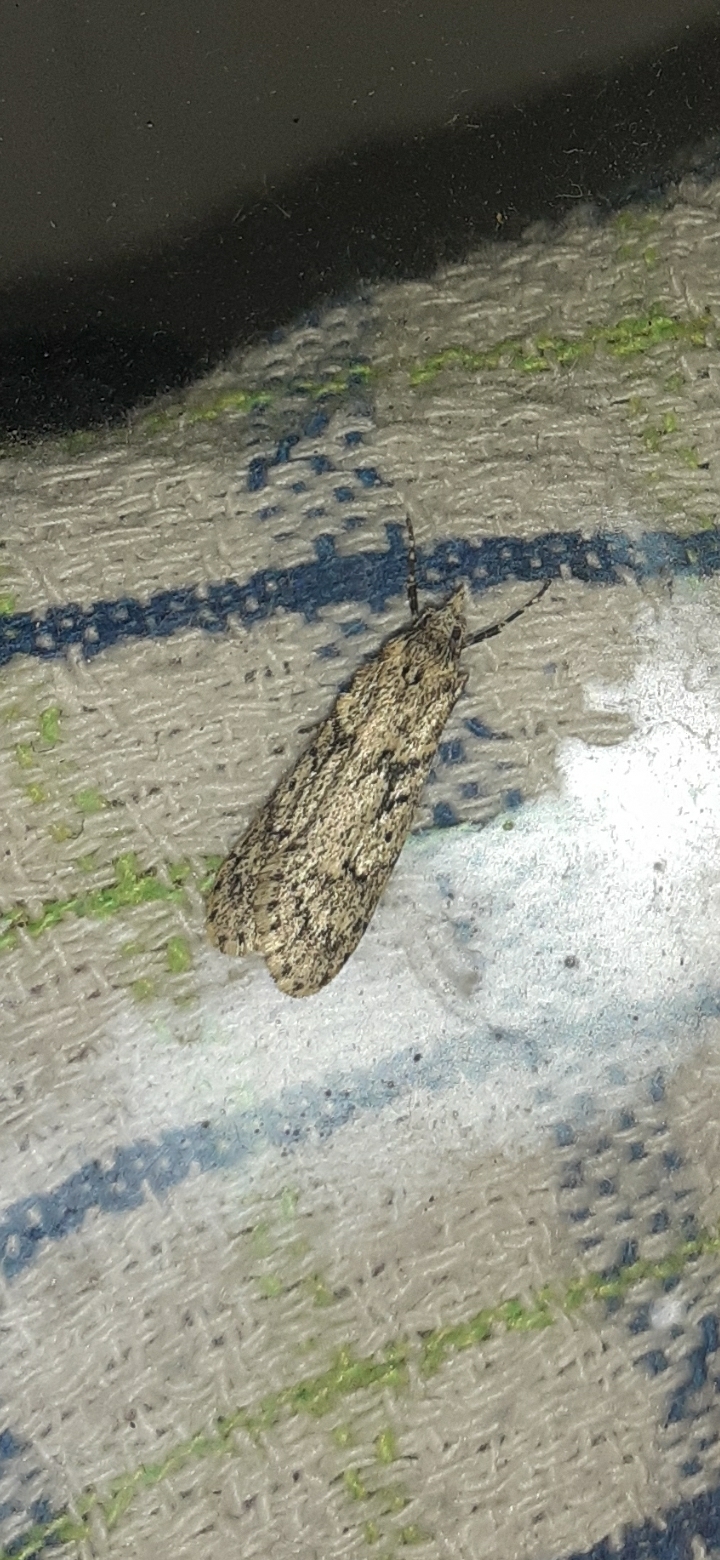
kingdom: Animalia
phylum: Arthropoda
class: Insecta
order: Lepidoptera
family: Lypusidae
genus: Diurnea
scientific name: Diurnea fagella
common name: March tubic
